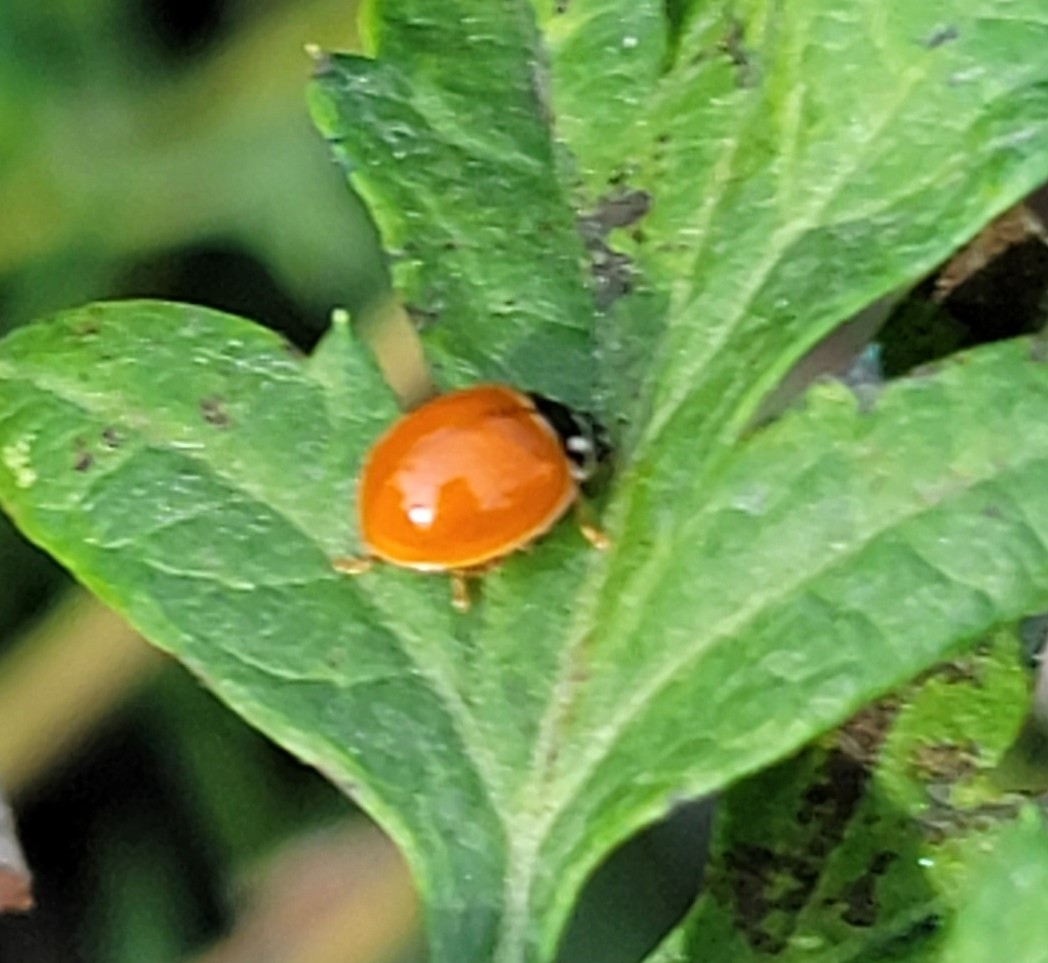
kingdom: Animalia
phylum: Arthropoda
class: Insecta
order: Coleoptera
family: Coccinellidae
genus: Cycloneda
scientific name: Cycloneda munda
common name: Polished lady beetle
